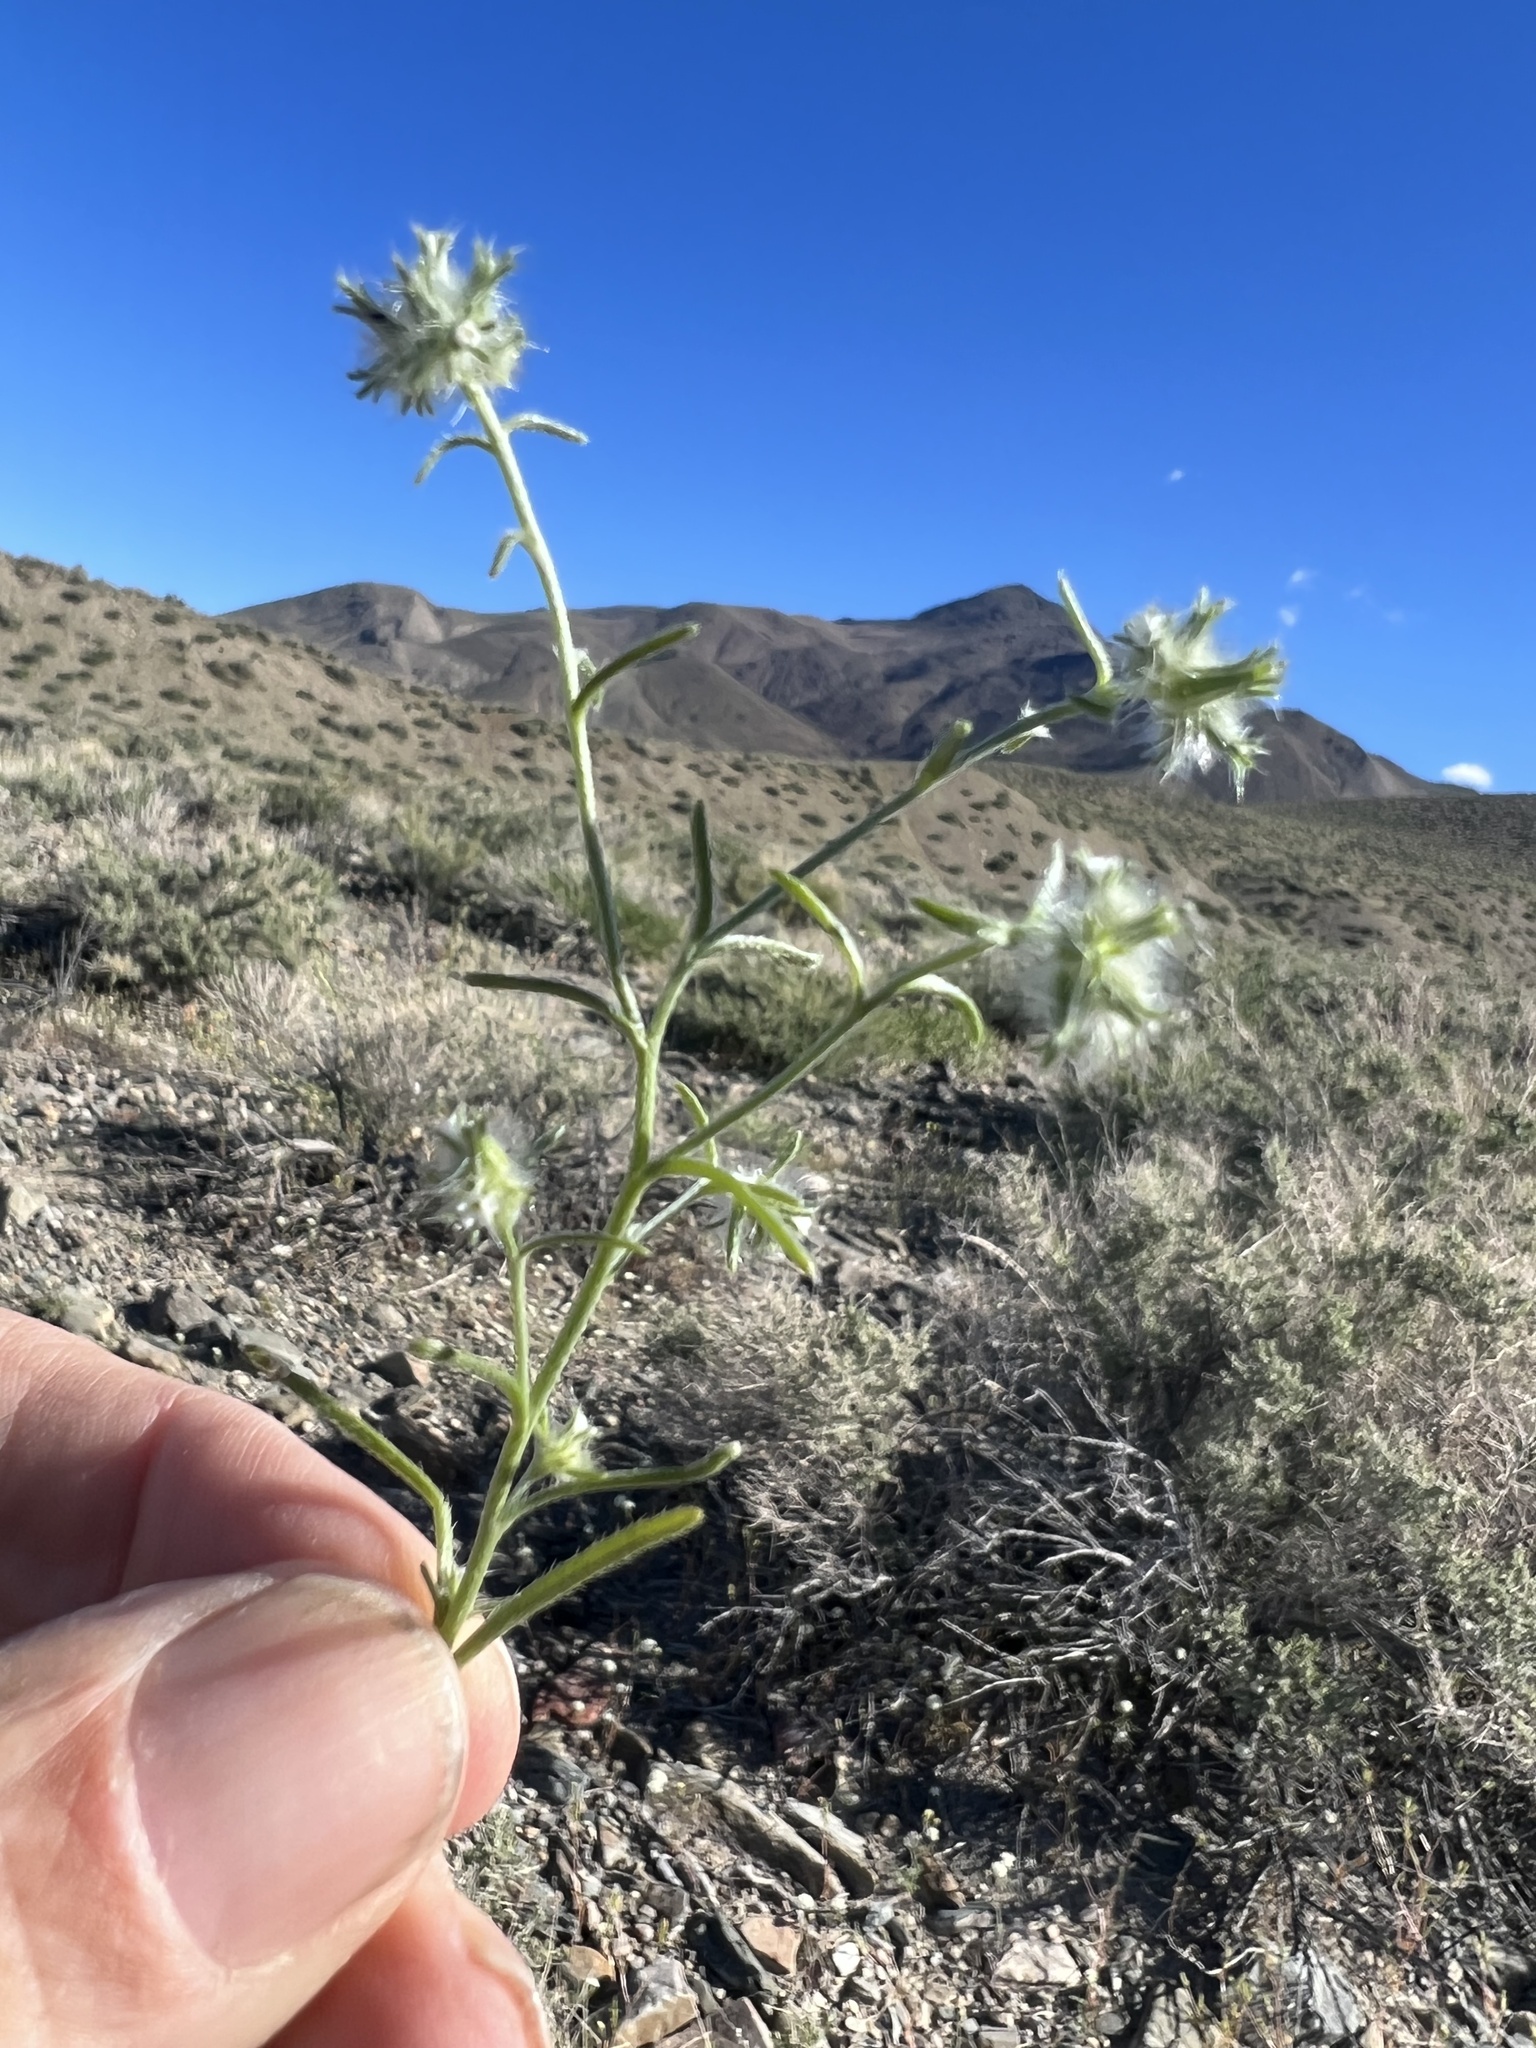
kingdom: Plantae
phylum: Tracheophyta
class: Magnoliopsida
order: Boraginales
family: Boraginaceae
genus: Cryptantha
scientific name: Cryptantha nevadensis
